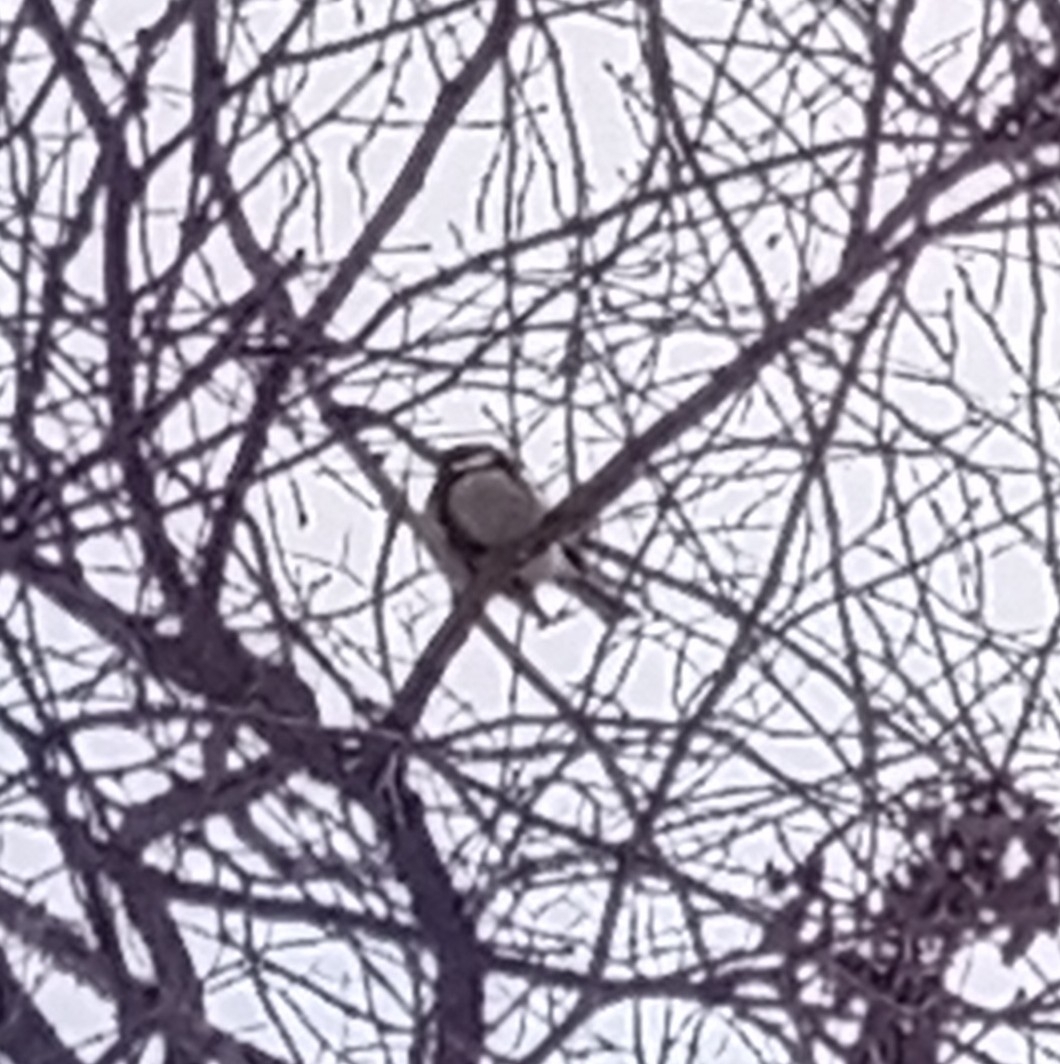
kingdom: Animalia
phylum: Chordata
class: Aves
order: Passeriformes
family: Paridae
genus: Parus
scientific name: Parus major
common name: Great tit
